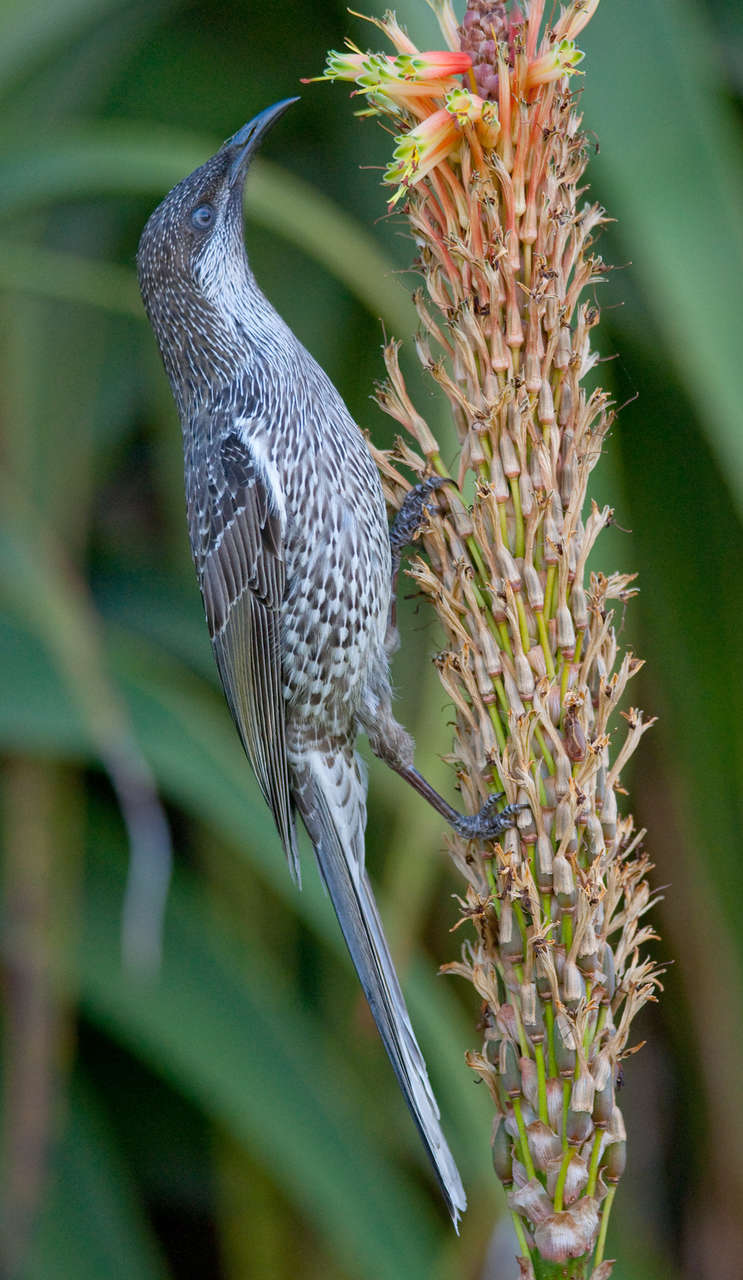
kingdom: Animalia
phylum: Chordata
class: Aves
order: Passeriformes
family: Meliphagidae
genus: Anthochaera
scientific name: Anthochaera chrysoptera
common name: Little wattlebird
